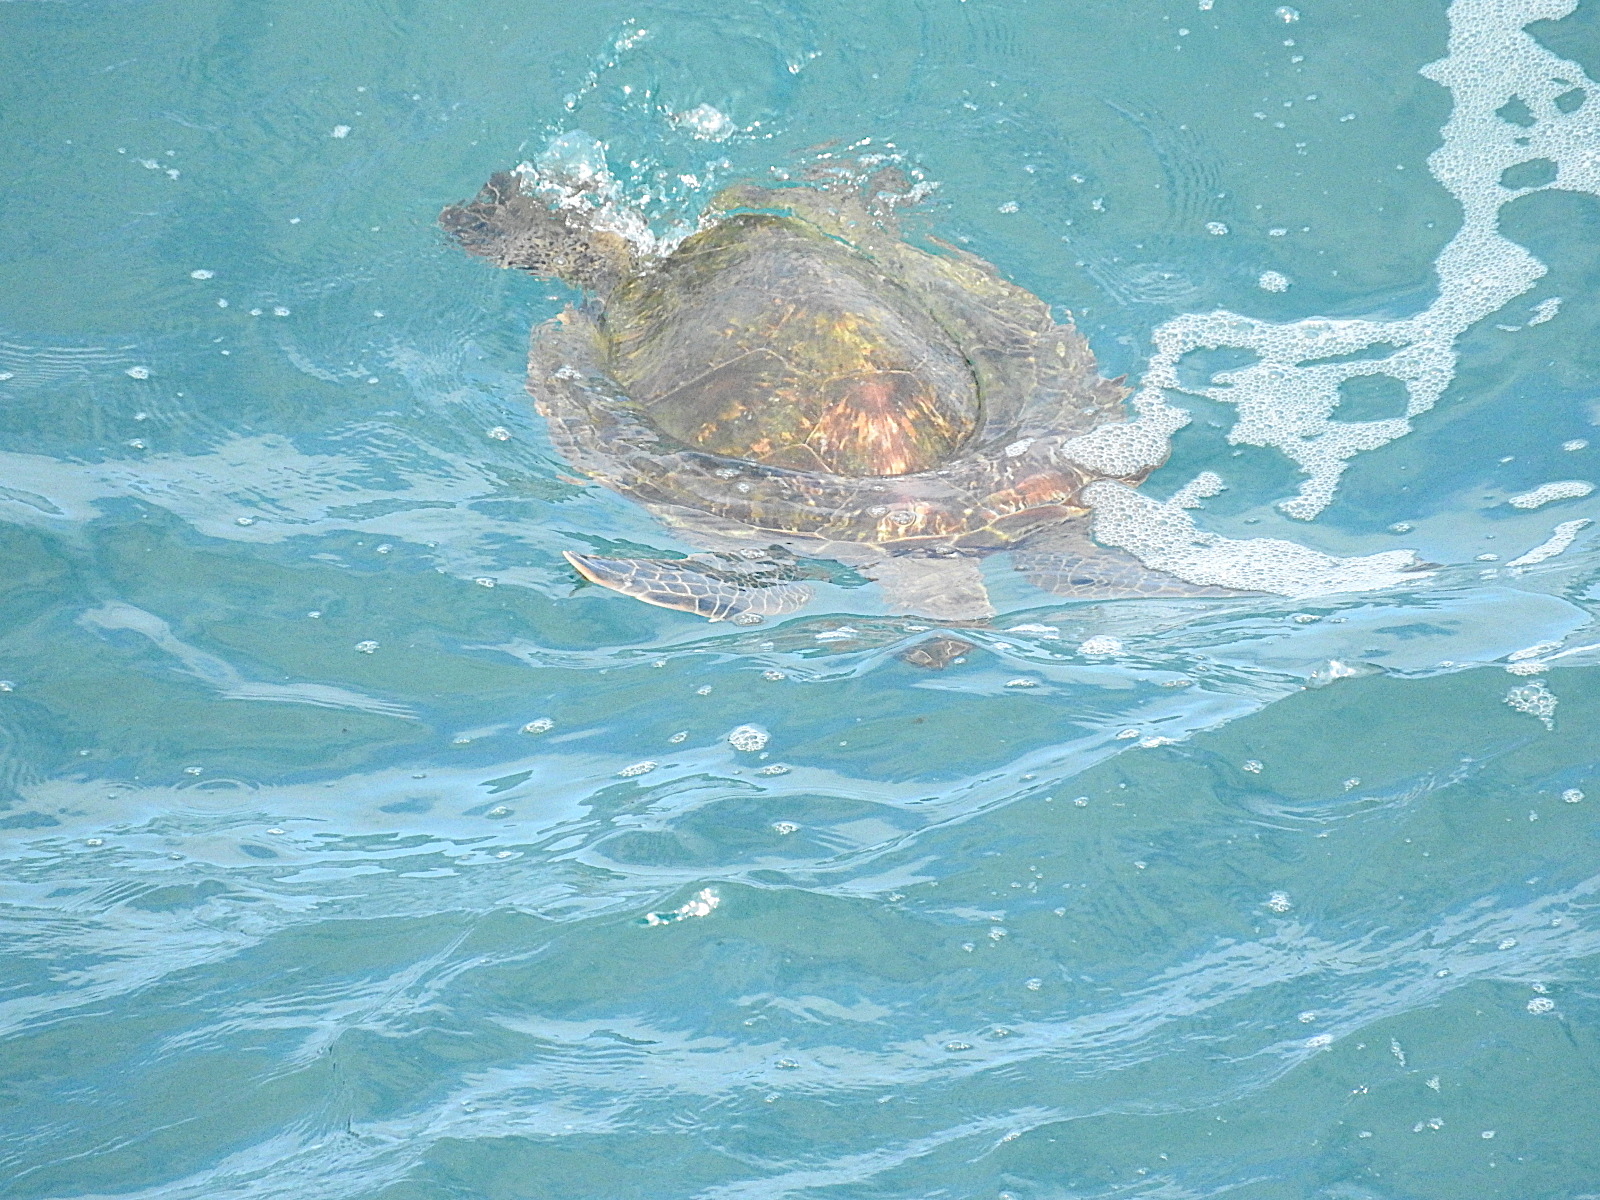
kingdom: Animalia
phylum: Chordata
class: Testudines
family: Cheloniidae
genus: Chelonia
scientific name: Chelonia mydas
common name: Green turtle
